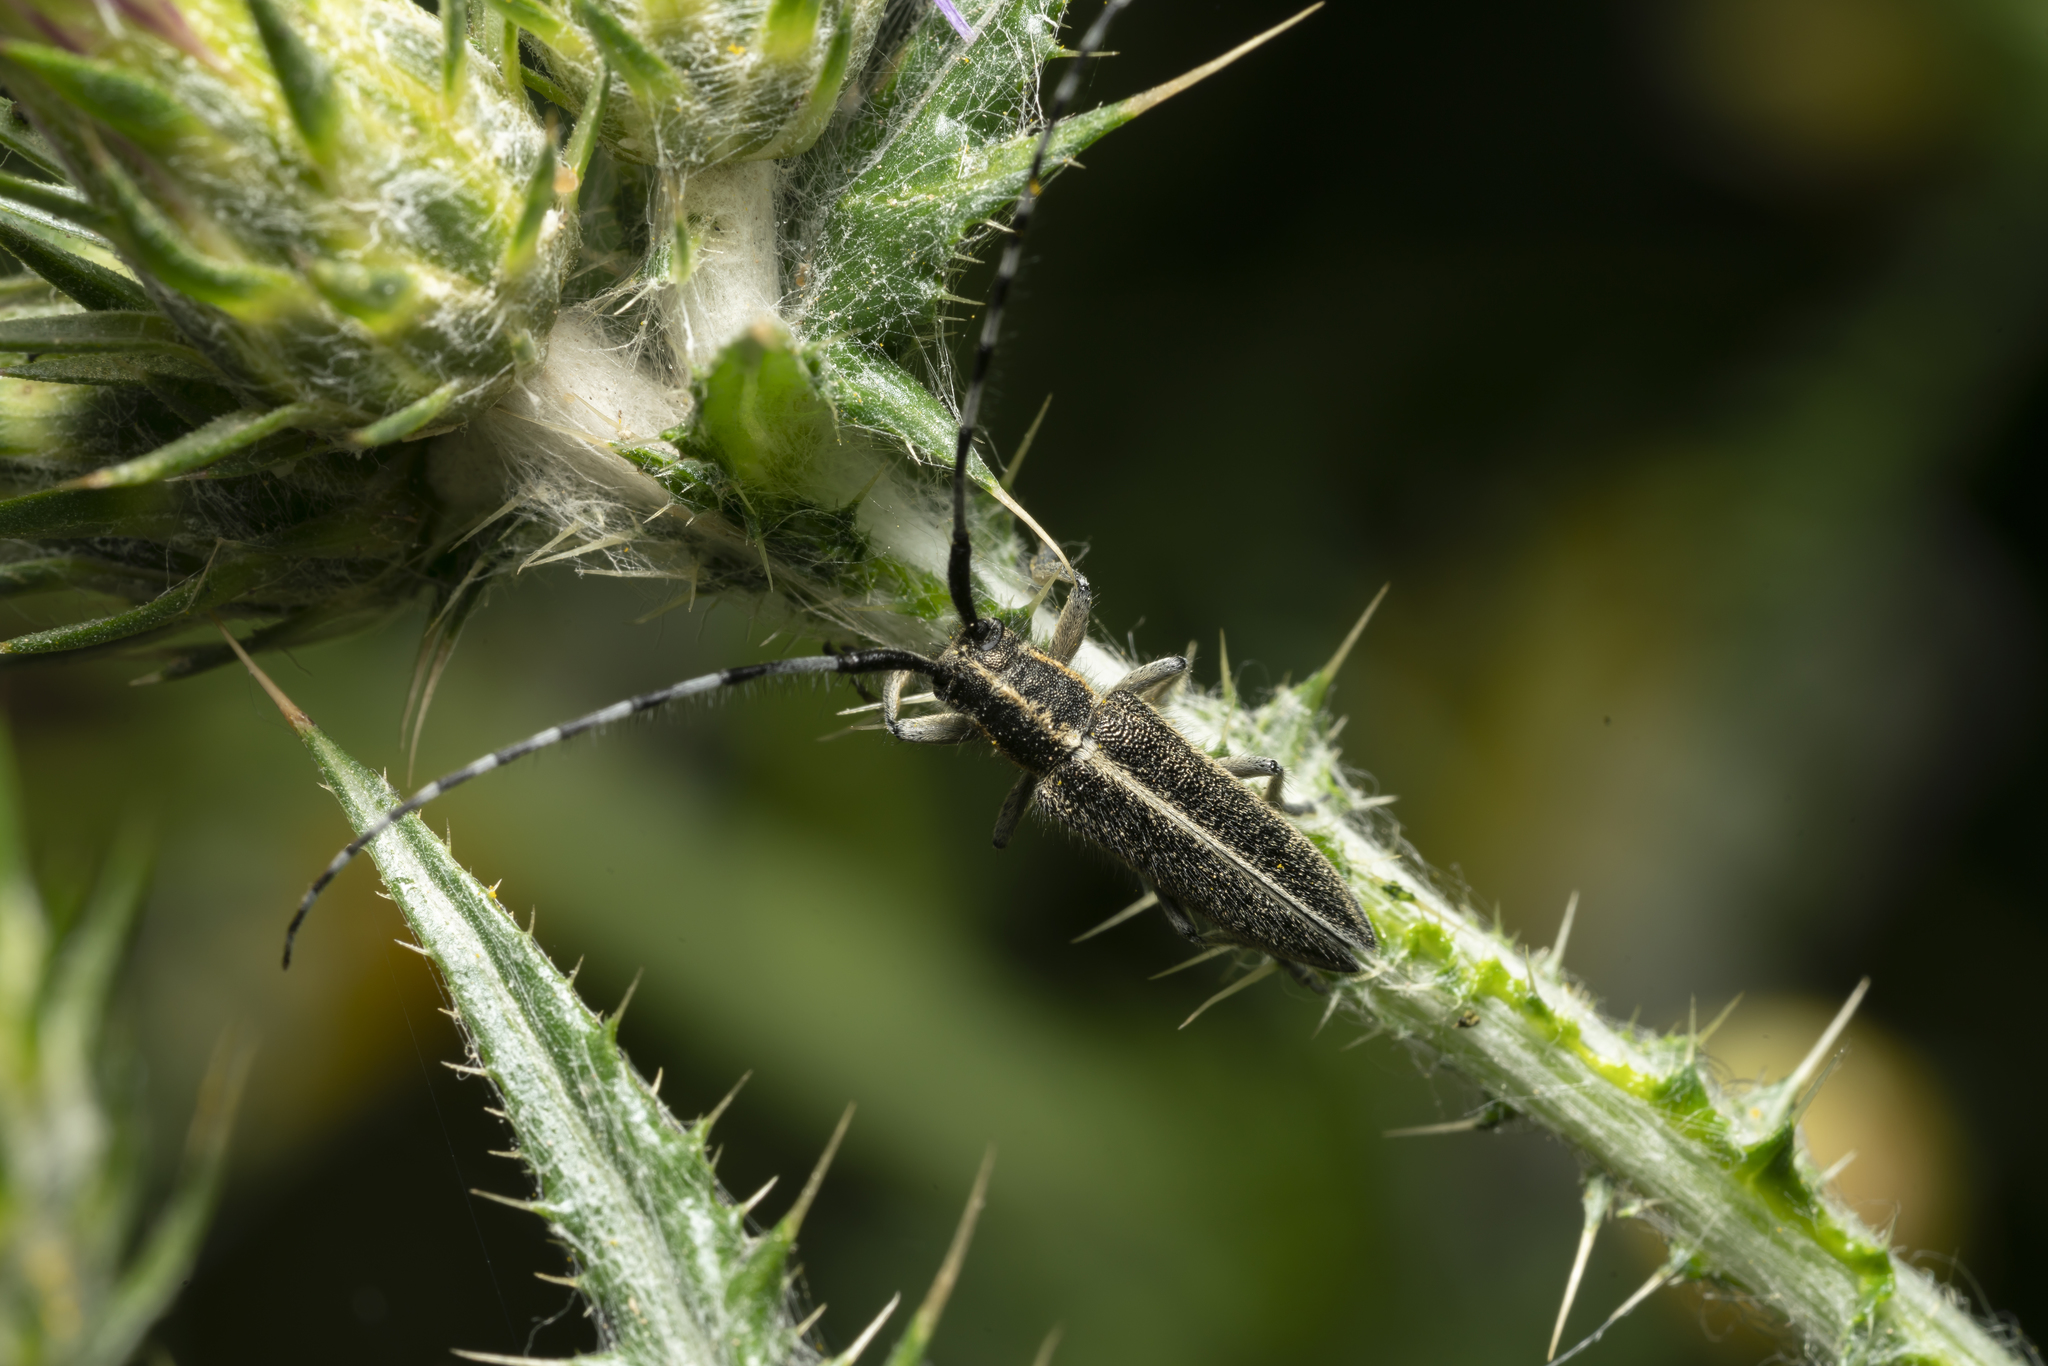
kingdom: Animalia
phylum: Arthropoda
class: Insecta
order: Coleoptera
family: Cerambycidae
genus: Agapanthia
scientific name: Agapanthia suturalis
